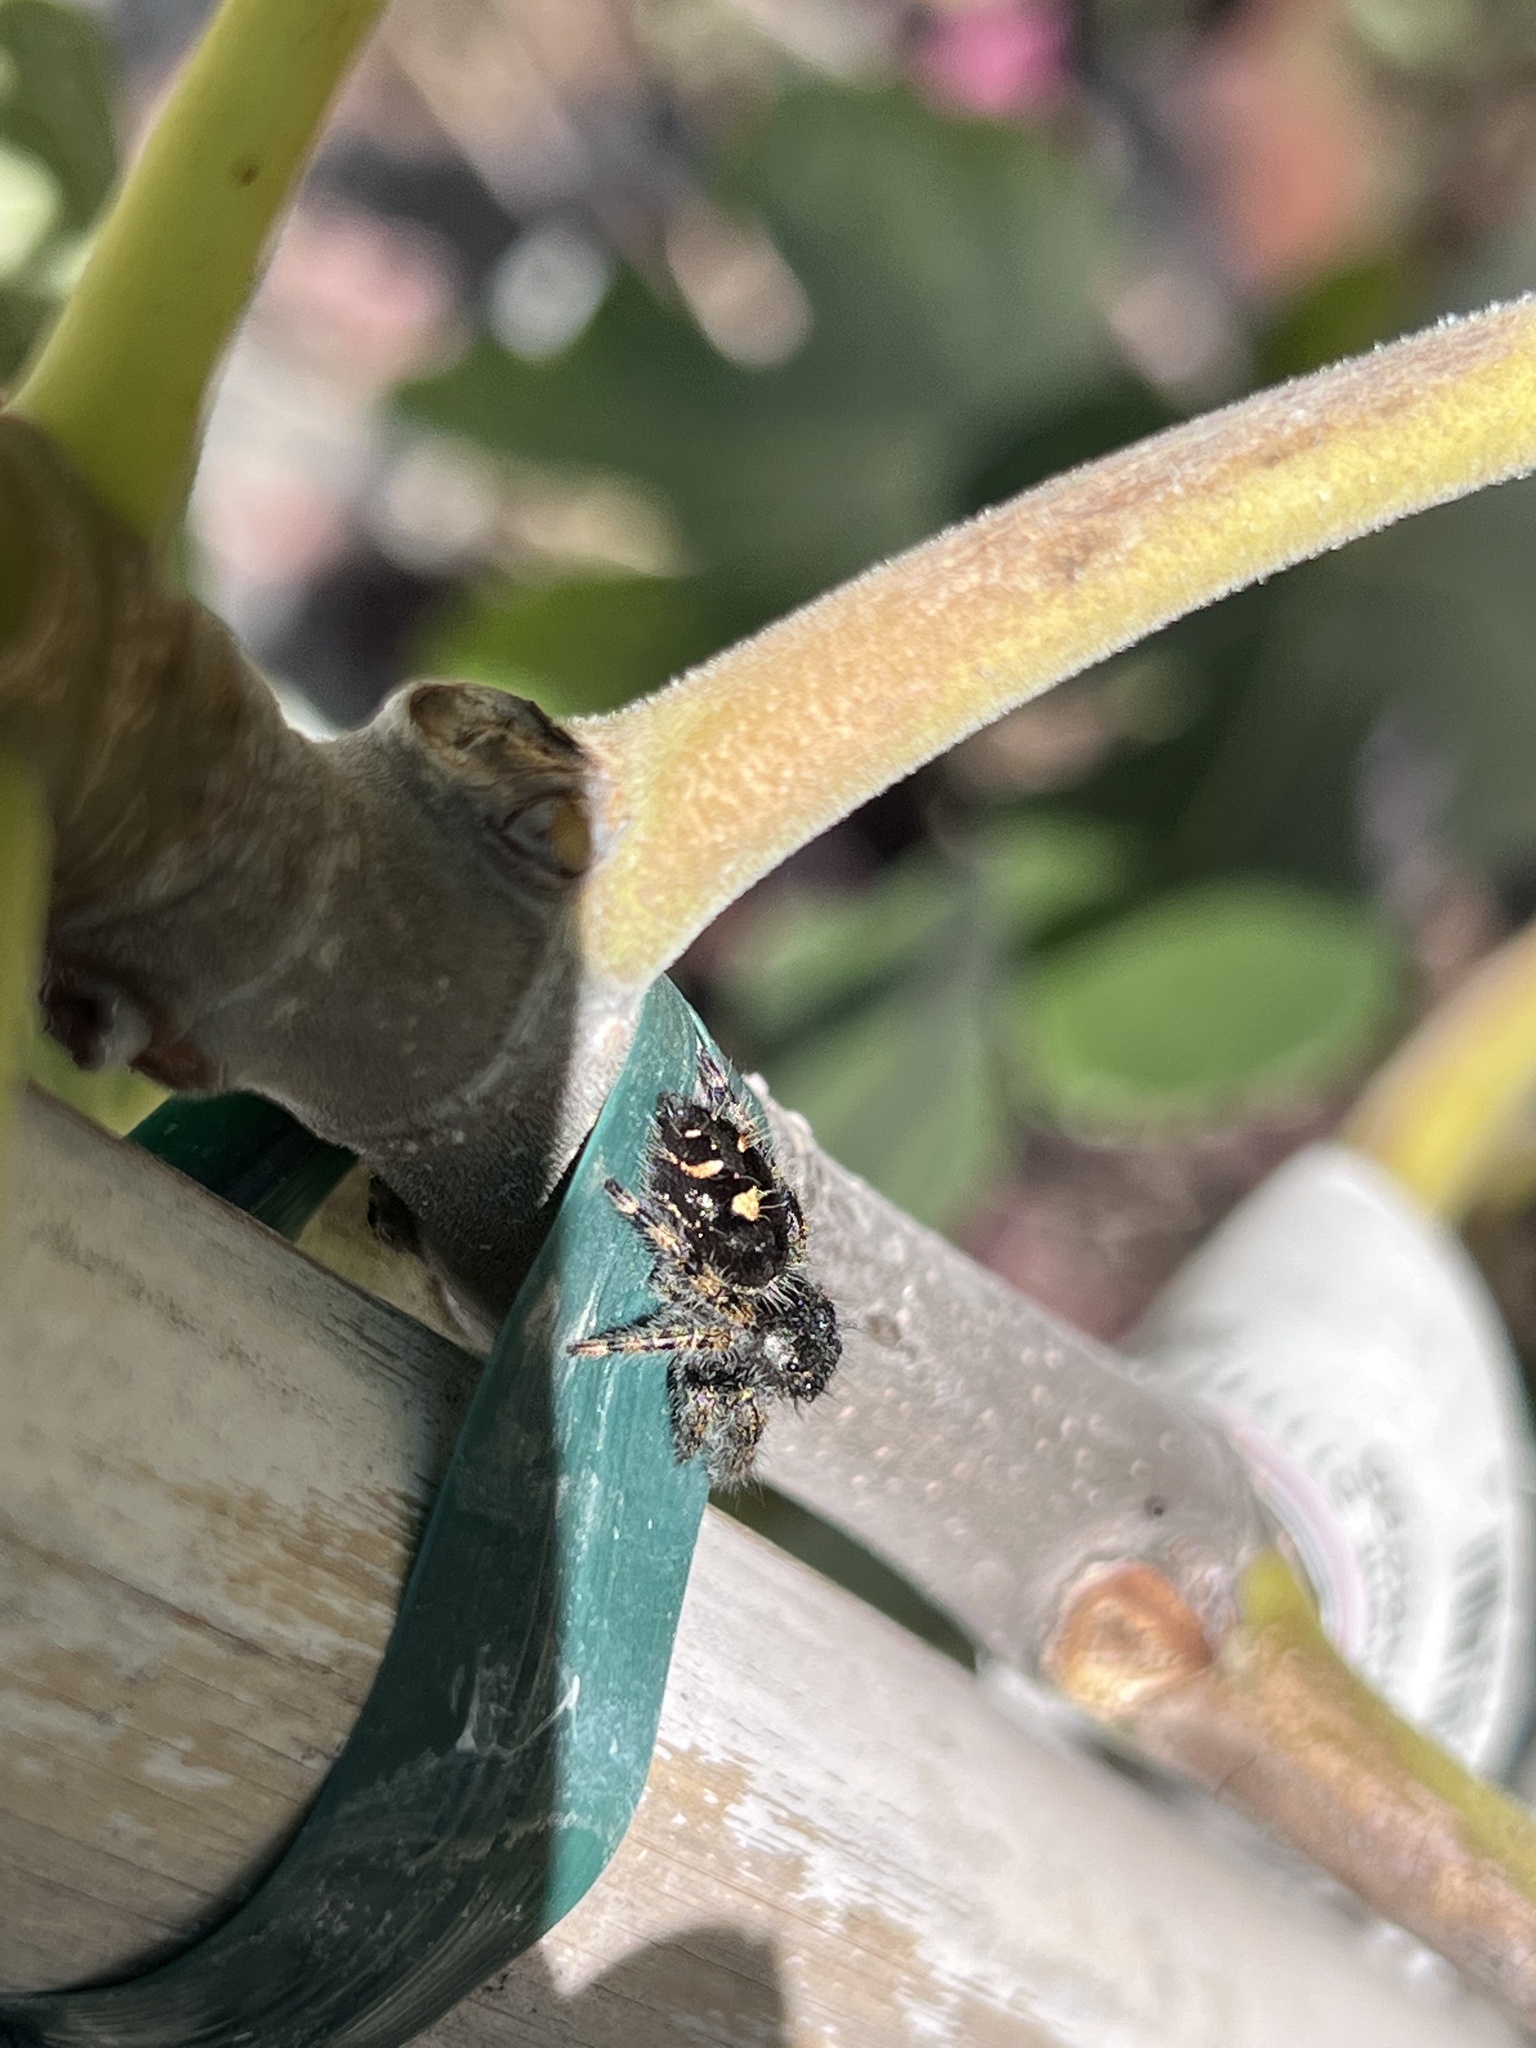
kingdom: Animalia
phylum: Arthropoda
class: Arachnida
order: Araneae
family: Salticidae
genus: Phidippus
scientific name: Phidippus audax
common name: Bold jumper
